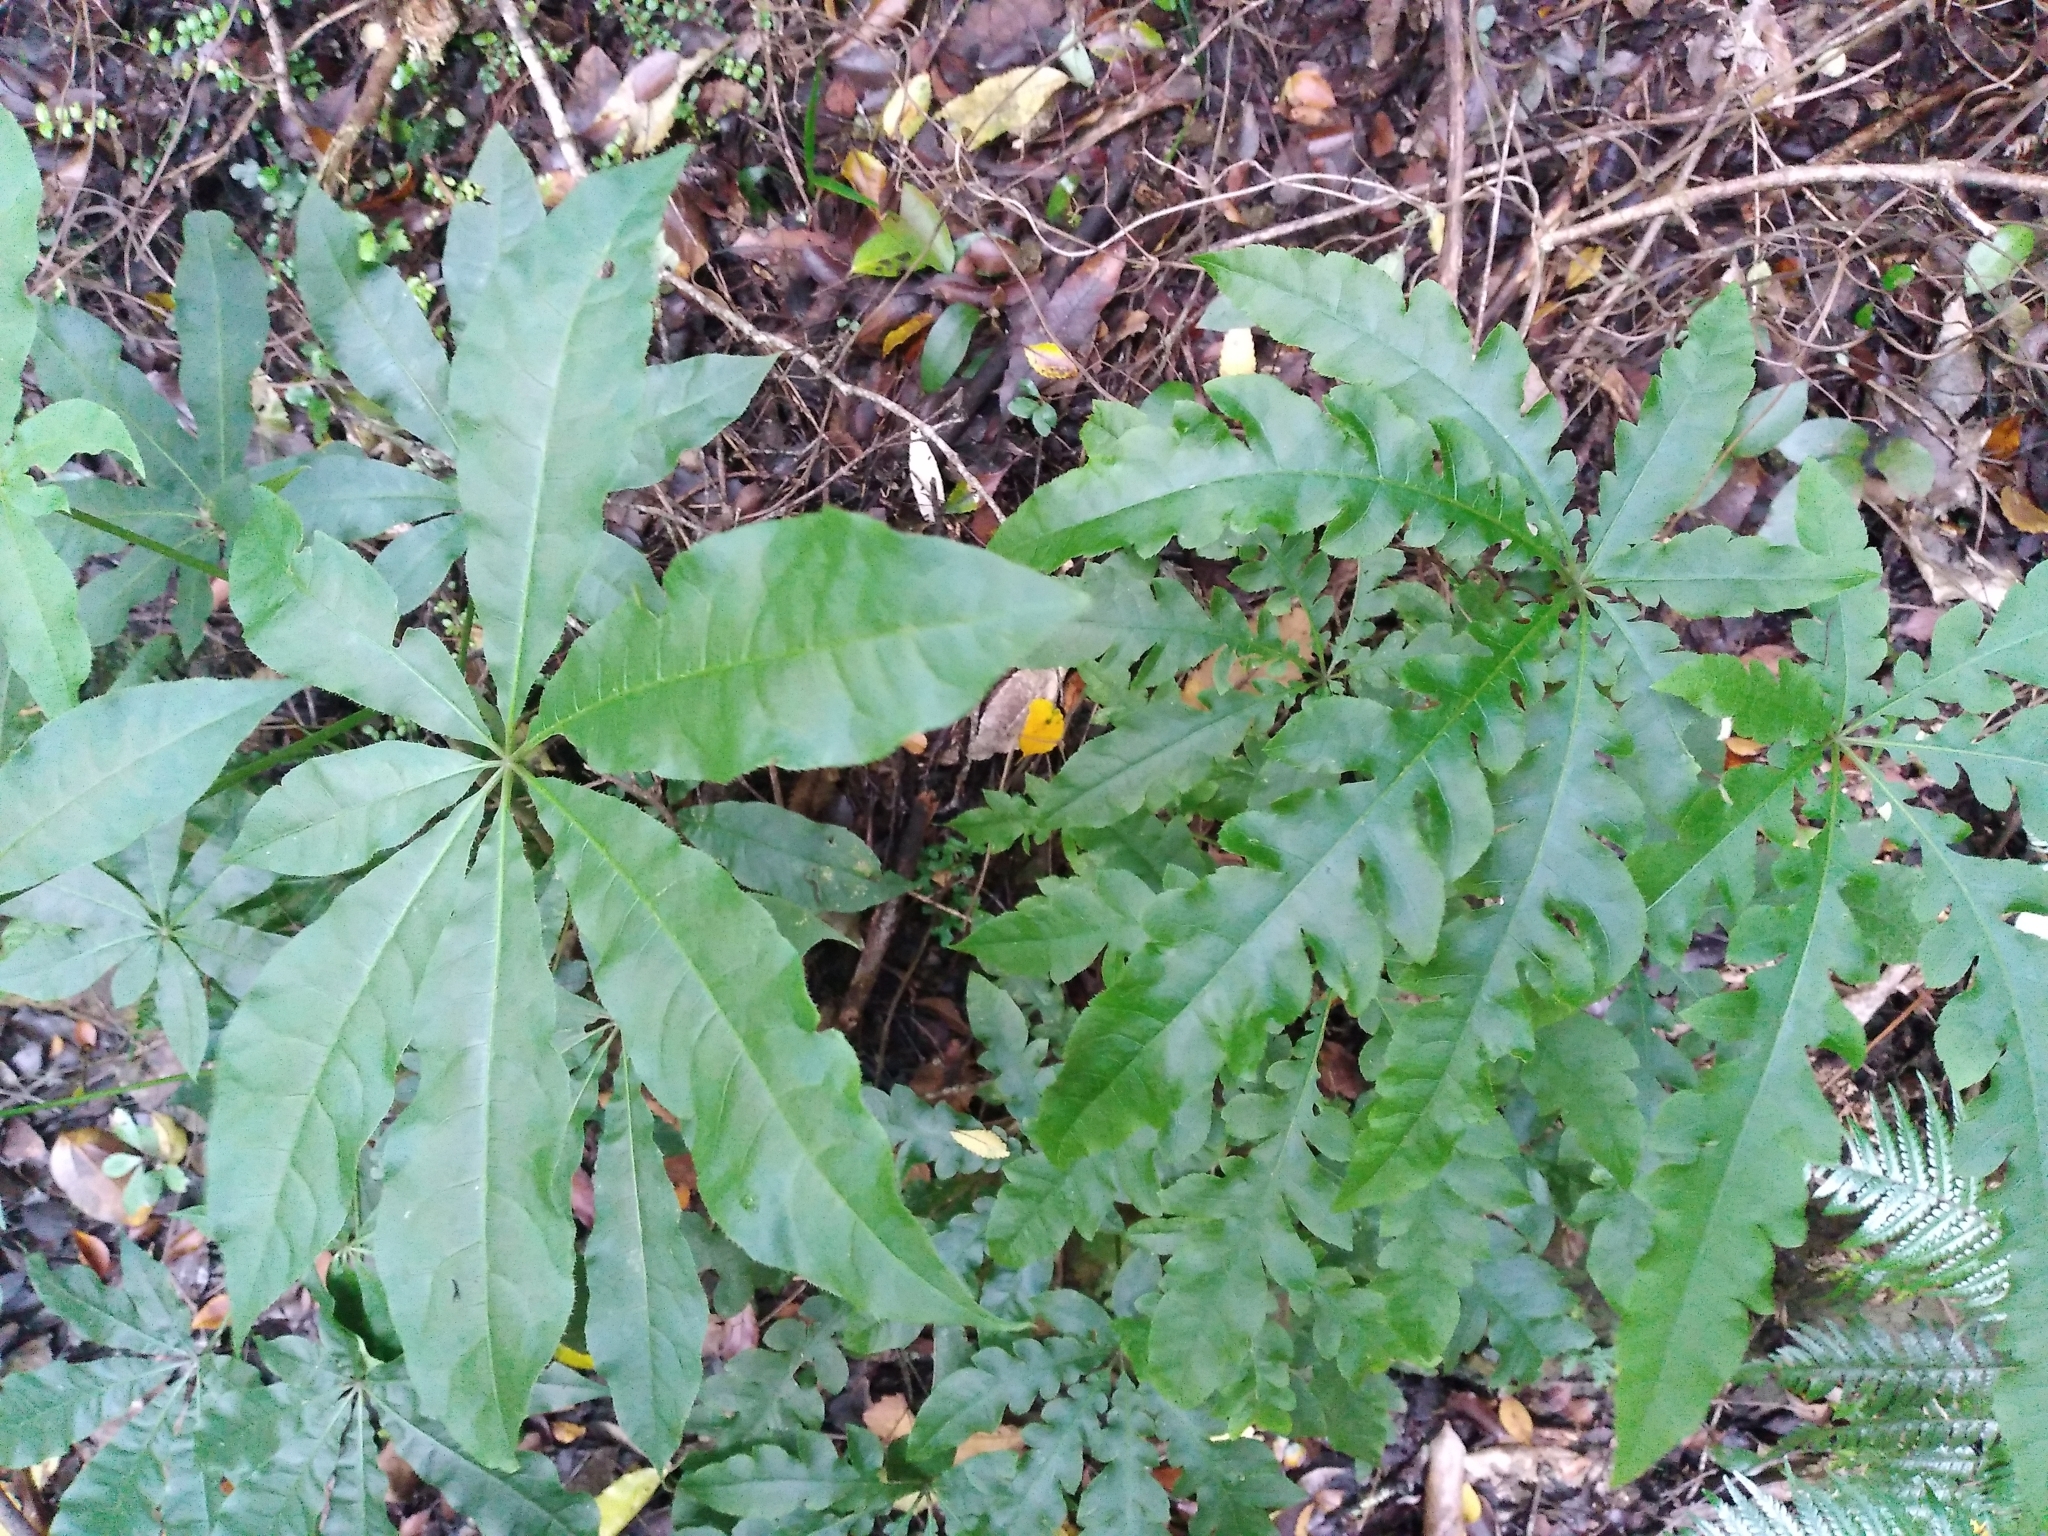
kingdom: Plantae
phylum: Tracheophyta
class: Magnoliopsida
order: Apiales
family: Araliaceae
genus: Schefflera
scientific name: Schefflera digitata
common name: Pate
